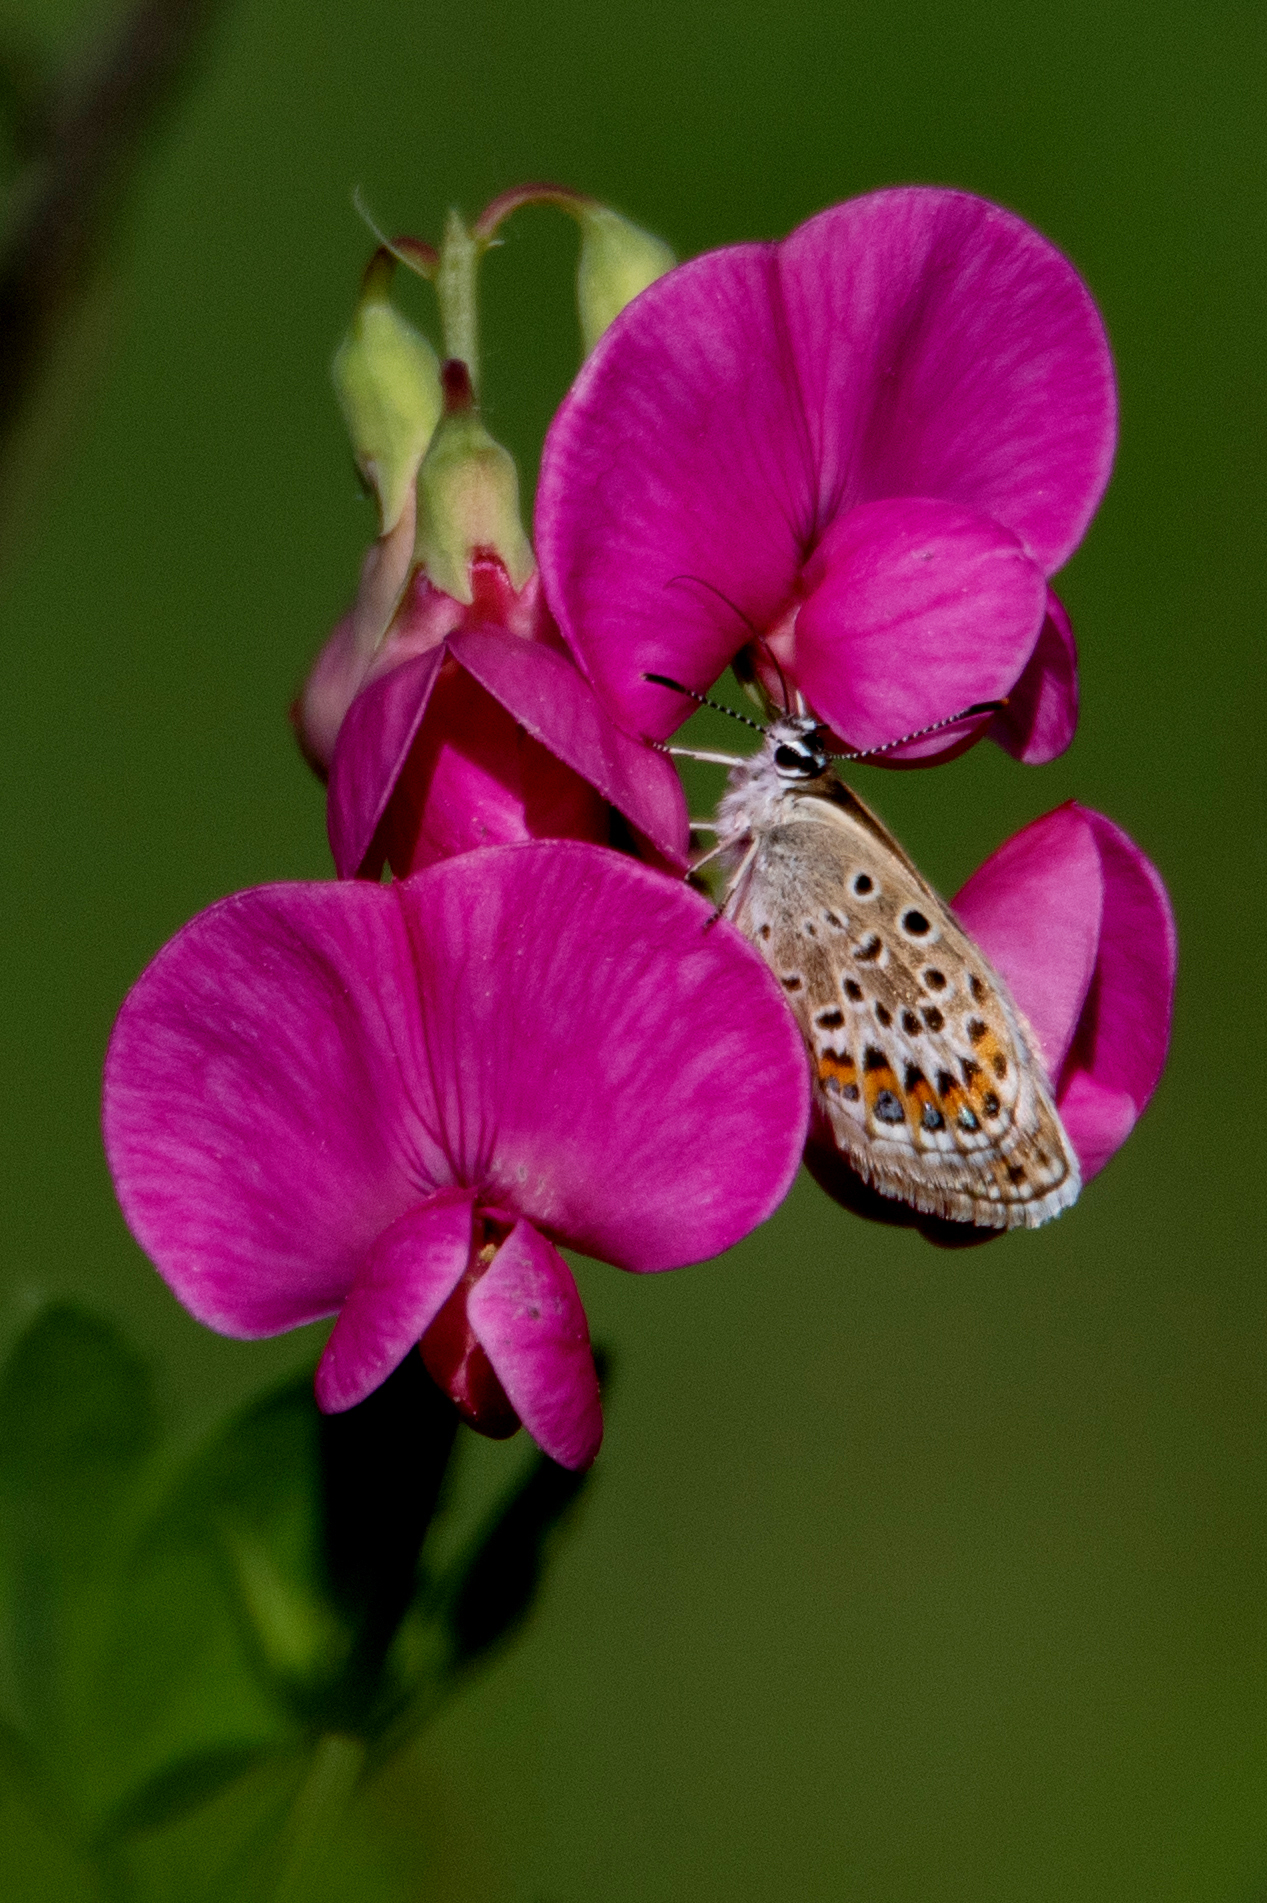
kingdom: Plantae
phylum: Tracheophyta
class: Magnoliopsida
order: Fabales
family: Fabaceae
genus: Lathyrus
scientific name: Lathyrus tuberosus
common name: Tuberous pea
